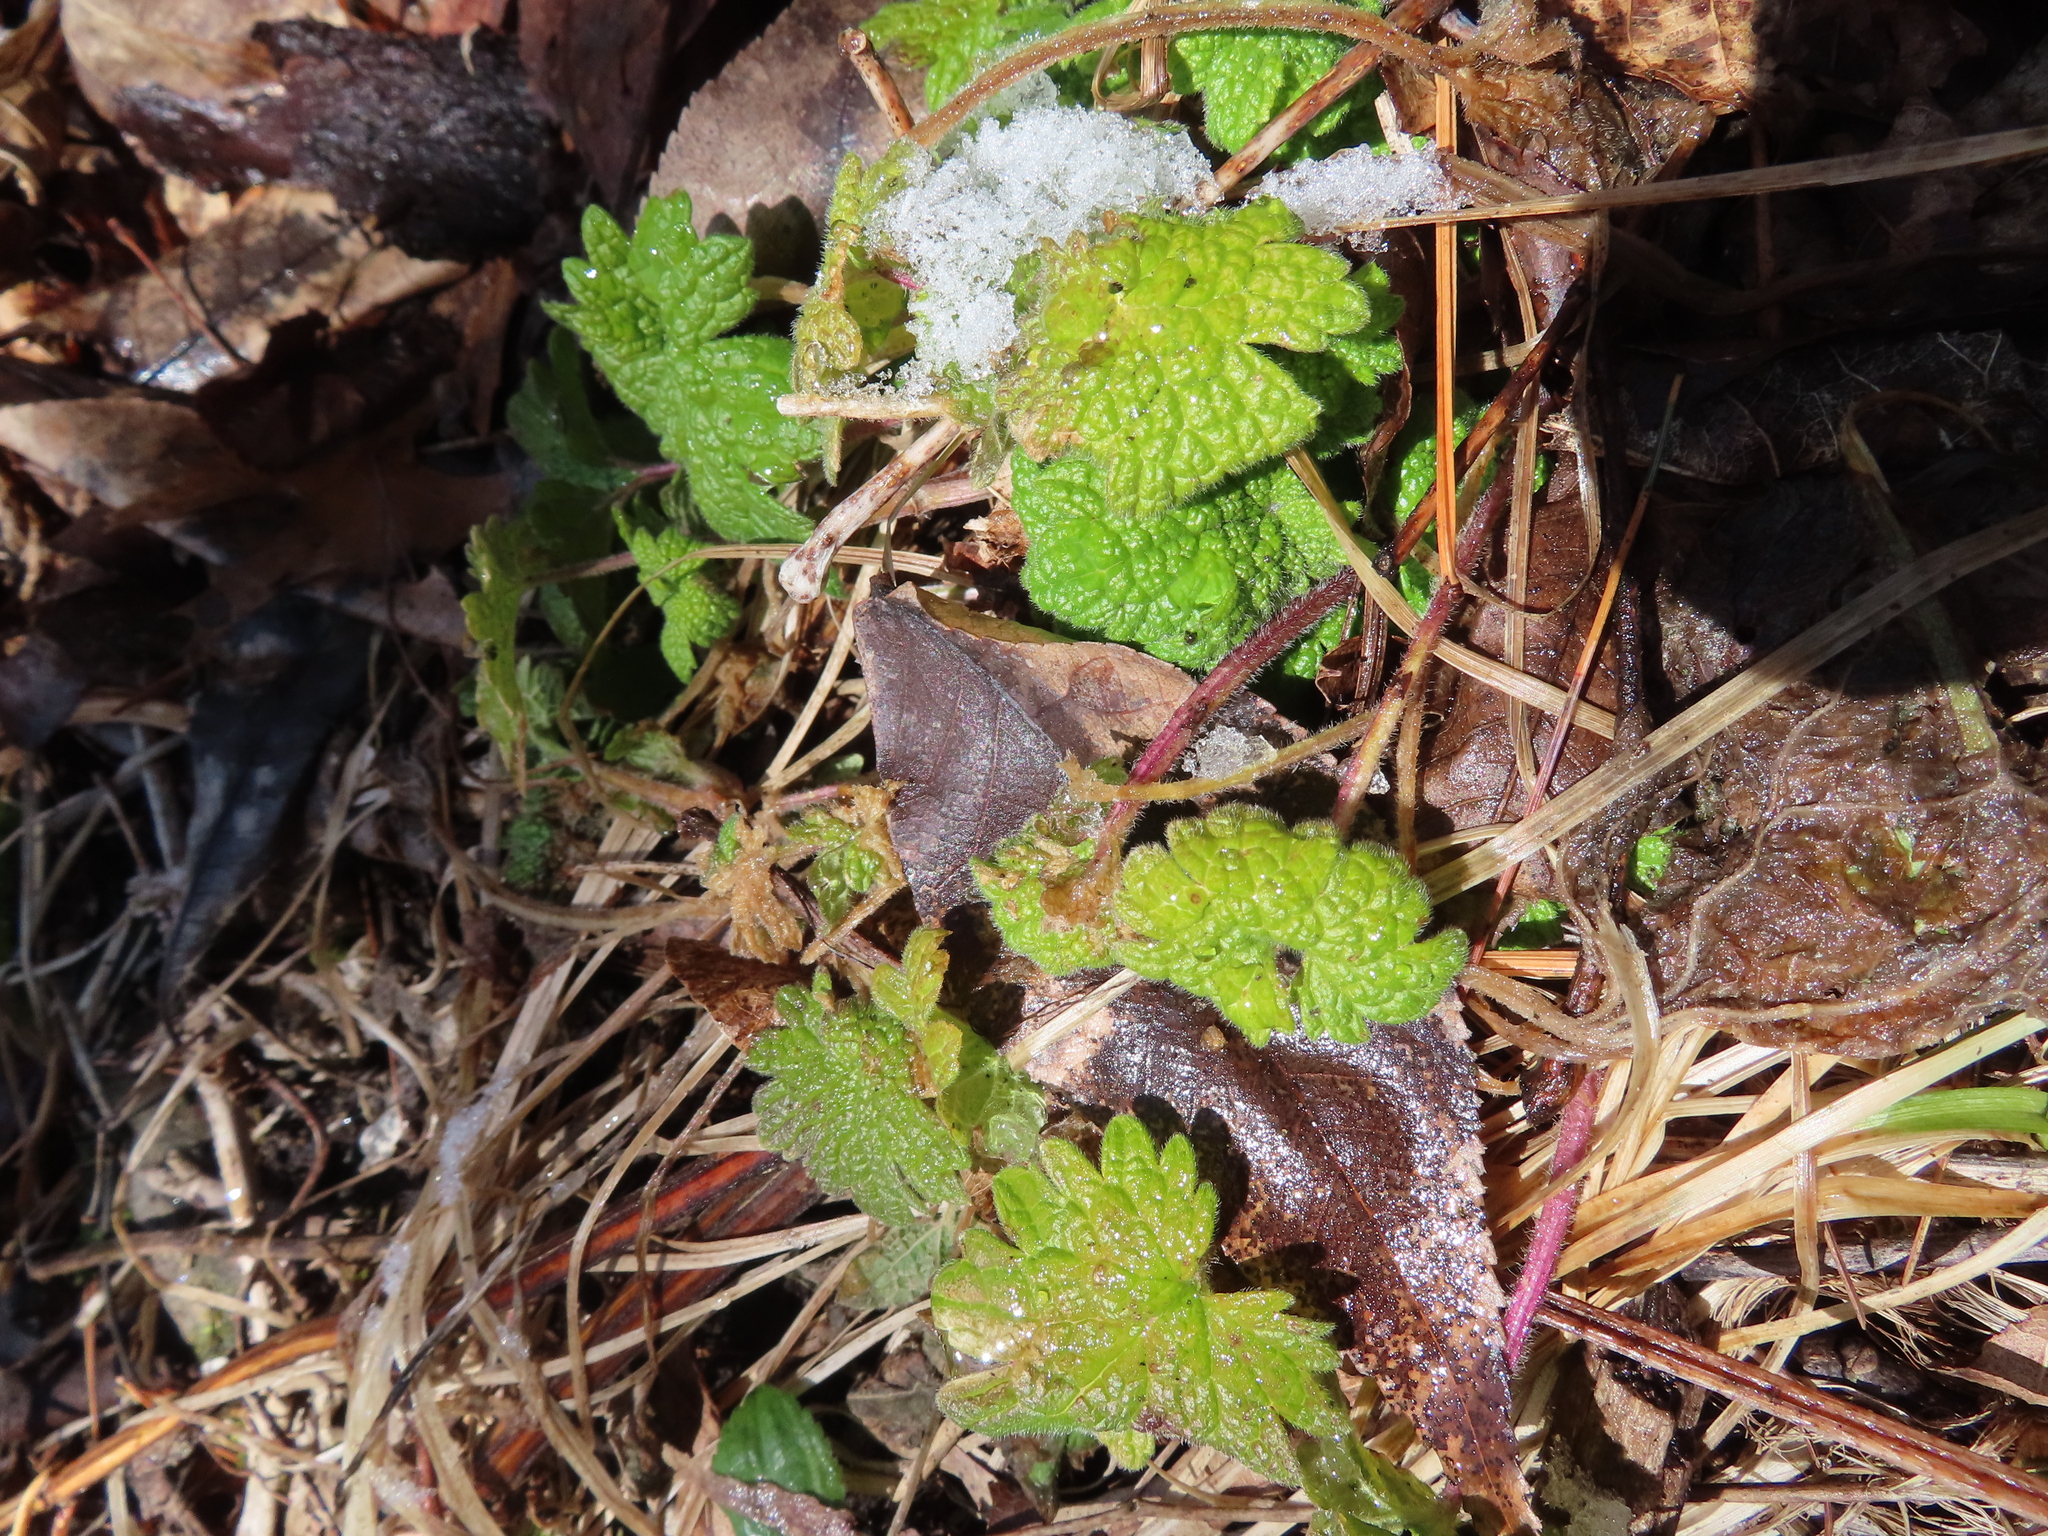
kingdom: Plantae
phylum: Tracheophyta
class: Magnoliopsida
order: Lamiales
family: Lamiaceae
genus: Leonurus
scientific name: Leonurus cardiaca
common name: Motherwort
